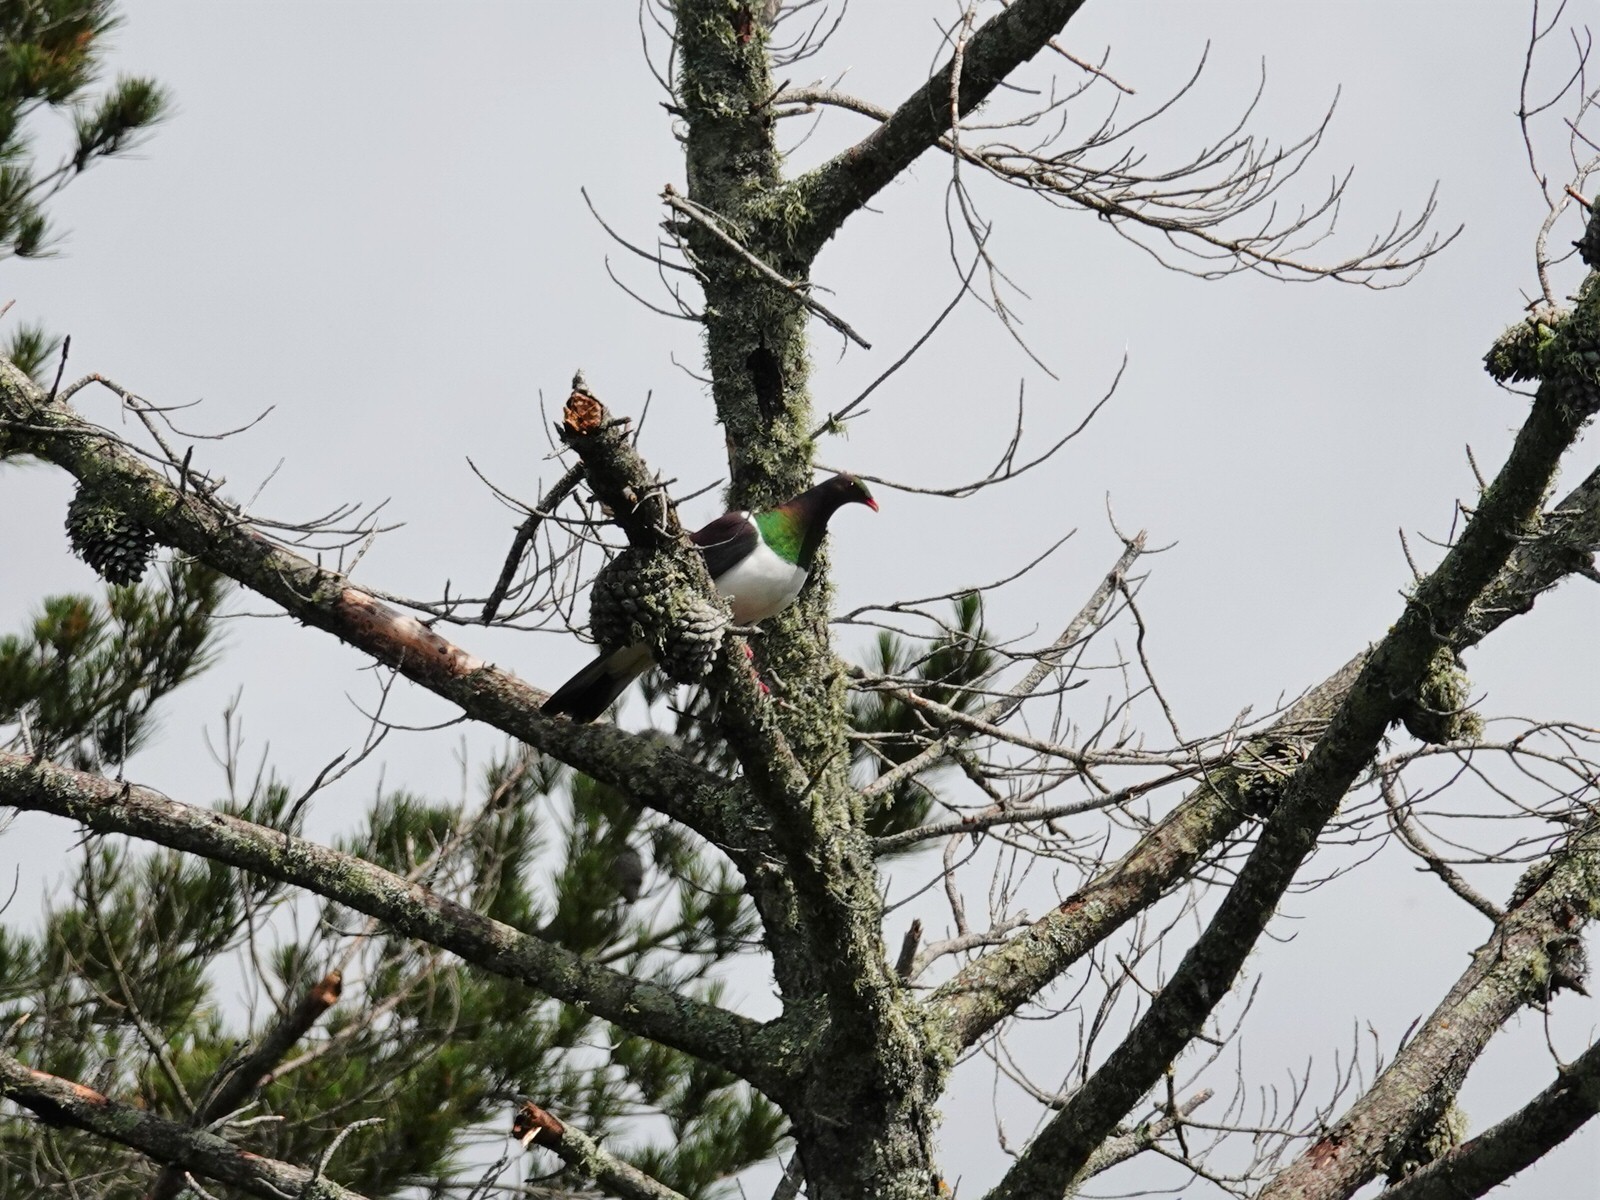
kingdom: Animalia
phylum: Chordata
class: Aves
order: Columbiformes
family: Columbidae
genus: Hemiphaga
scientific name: Hemiphaga novaeseelandiae
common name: New zealand pigeon
